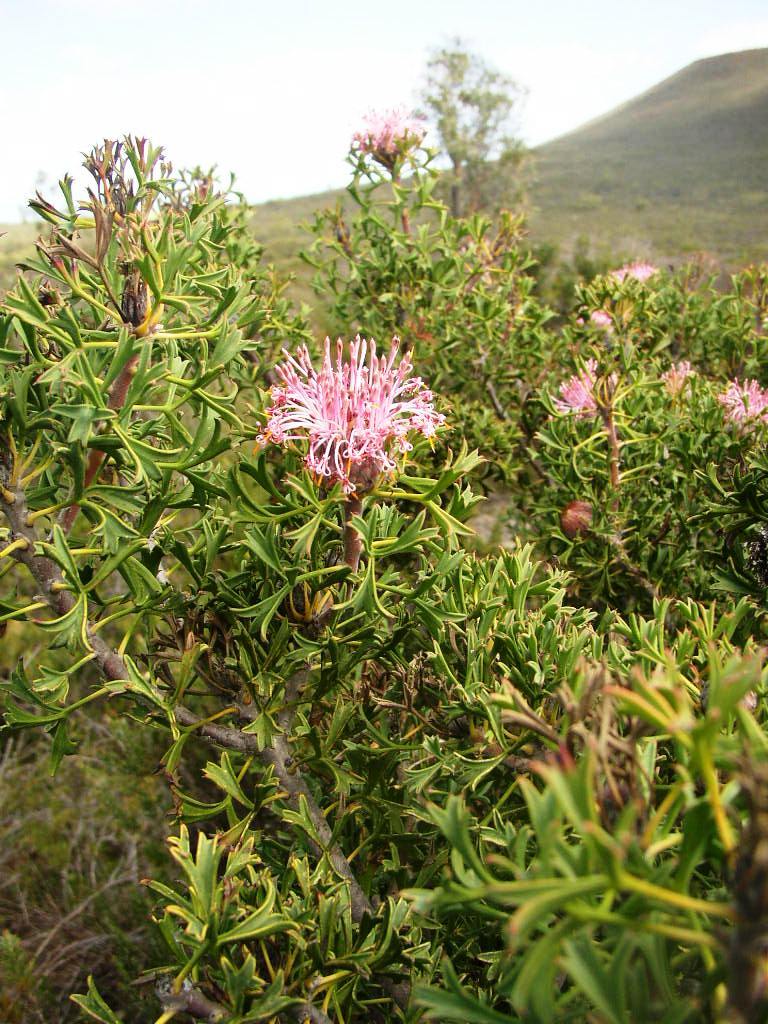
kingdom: Plantae
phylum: Tracheophyta
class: Magnoliopsida
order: Proteales
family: Proteaceae
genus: Isopogon
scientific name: Isopogon dubius
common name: Pincushion-coneflower
